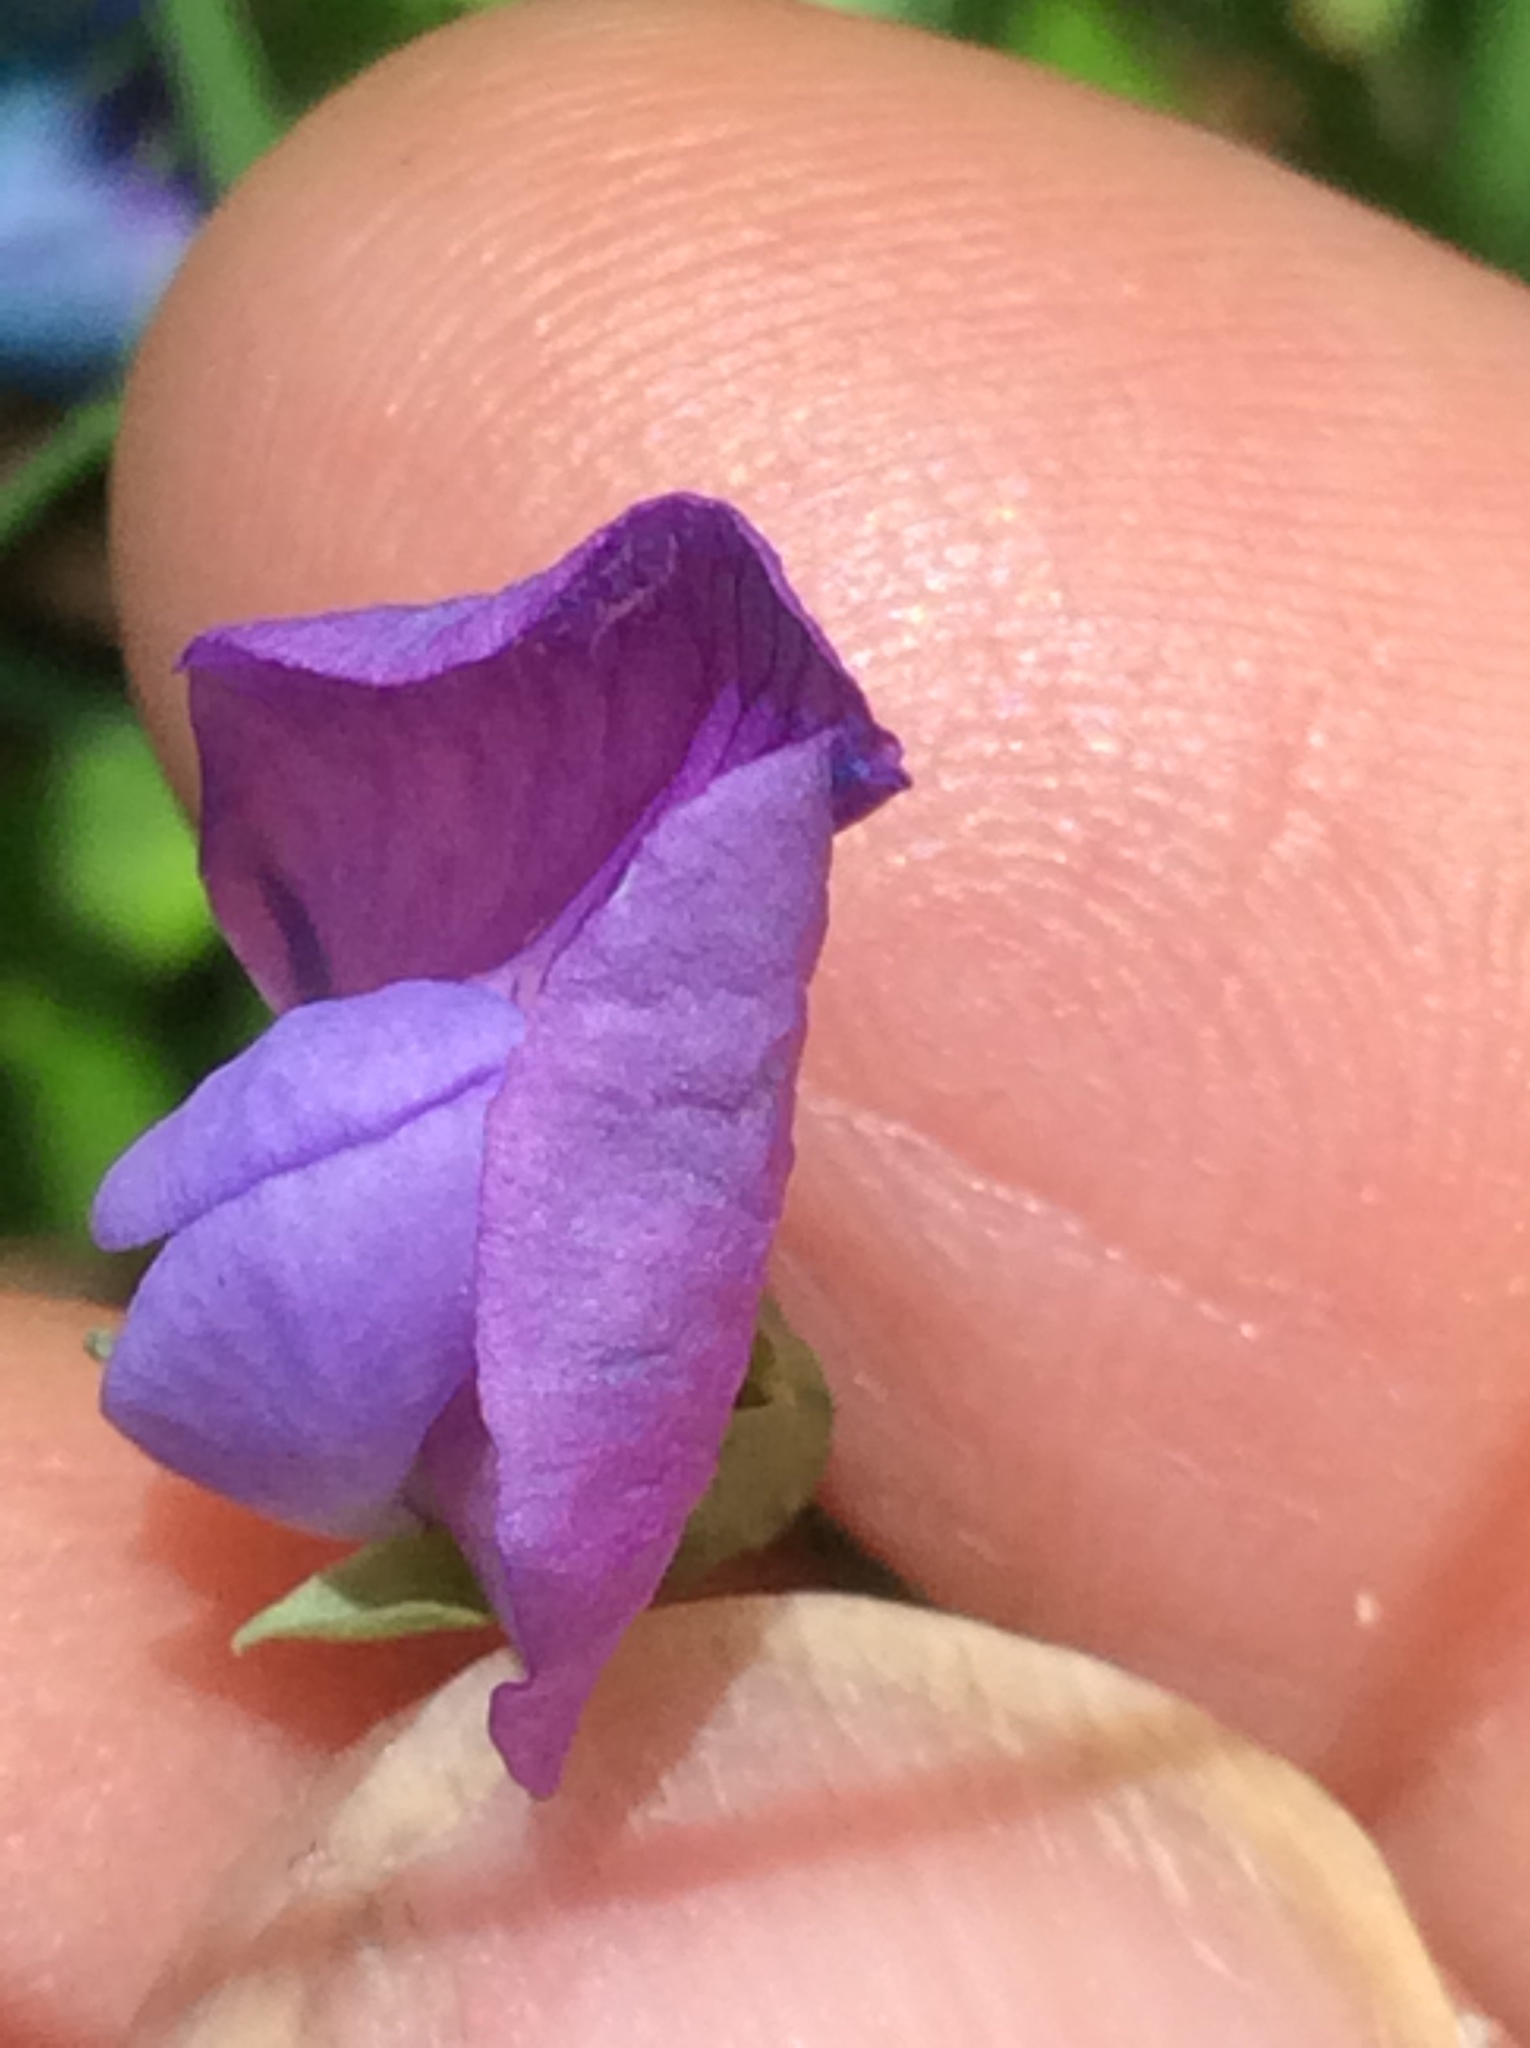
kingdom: Plantae
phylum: Tracheophyta
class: Magnoliopsida
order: Fabales
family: Fabaceae
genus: Lathyrus
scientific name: Lathyrus hirsutus
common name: Hairy vetchling
